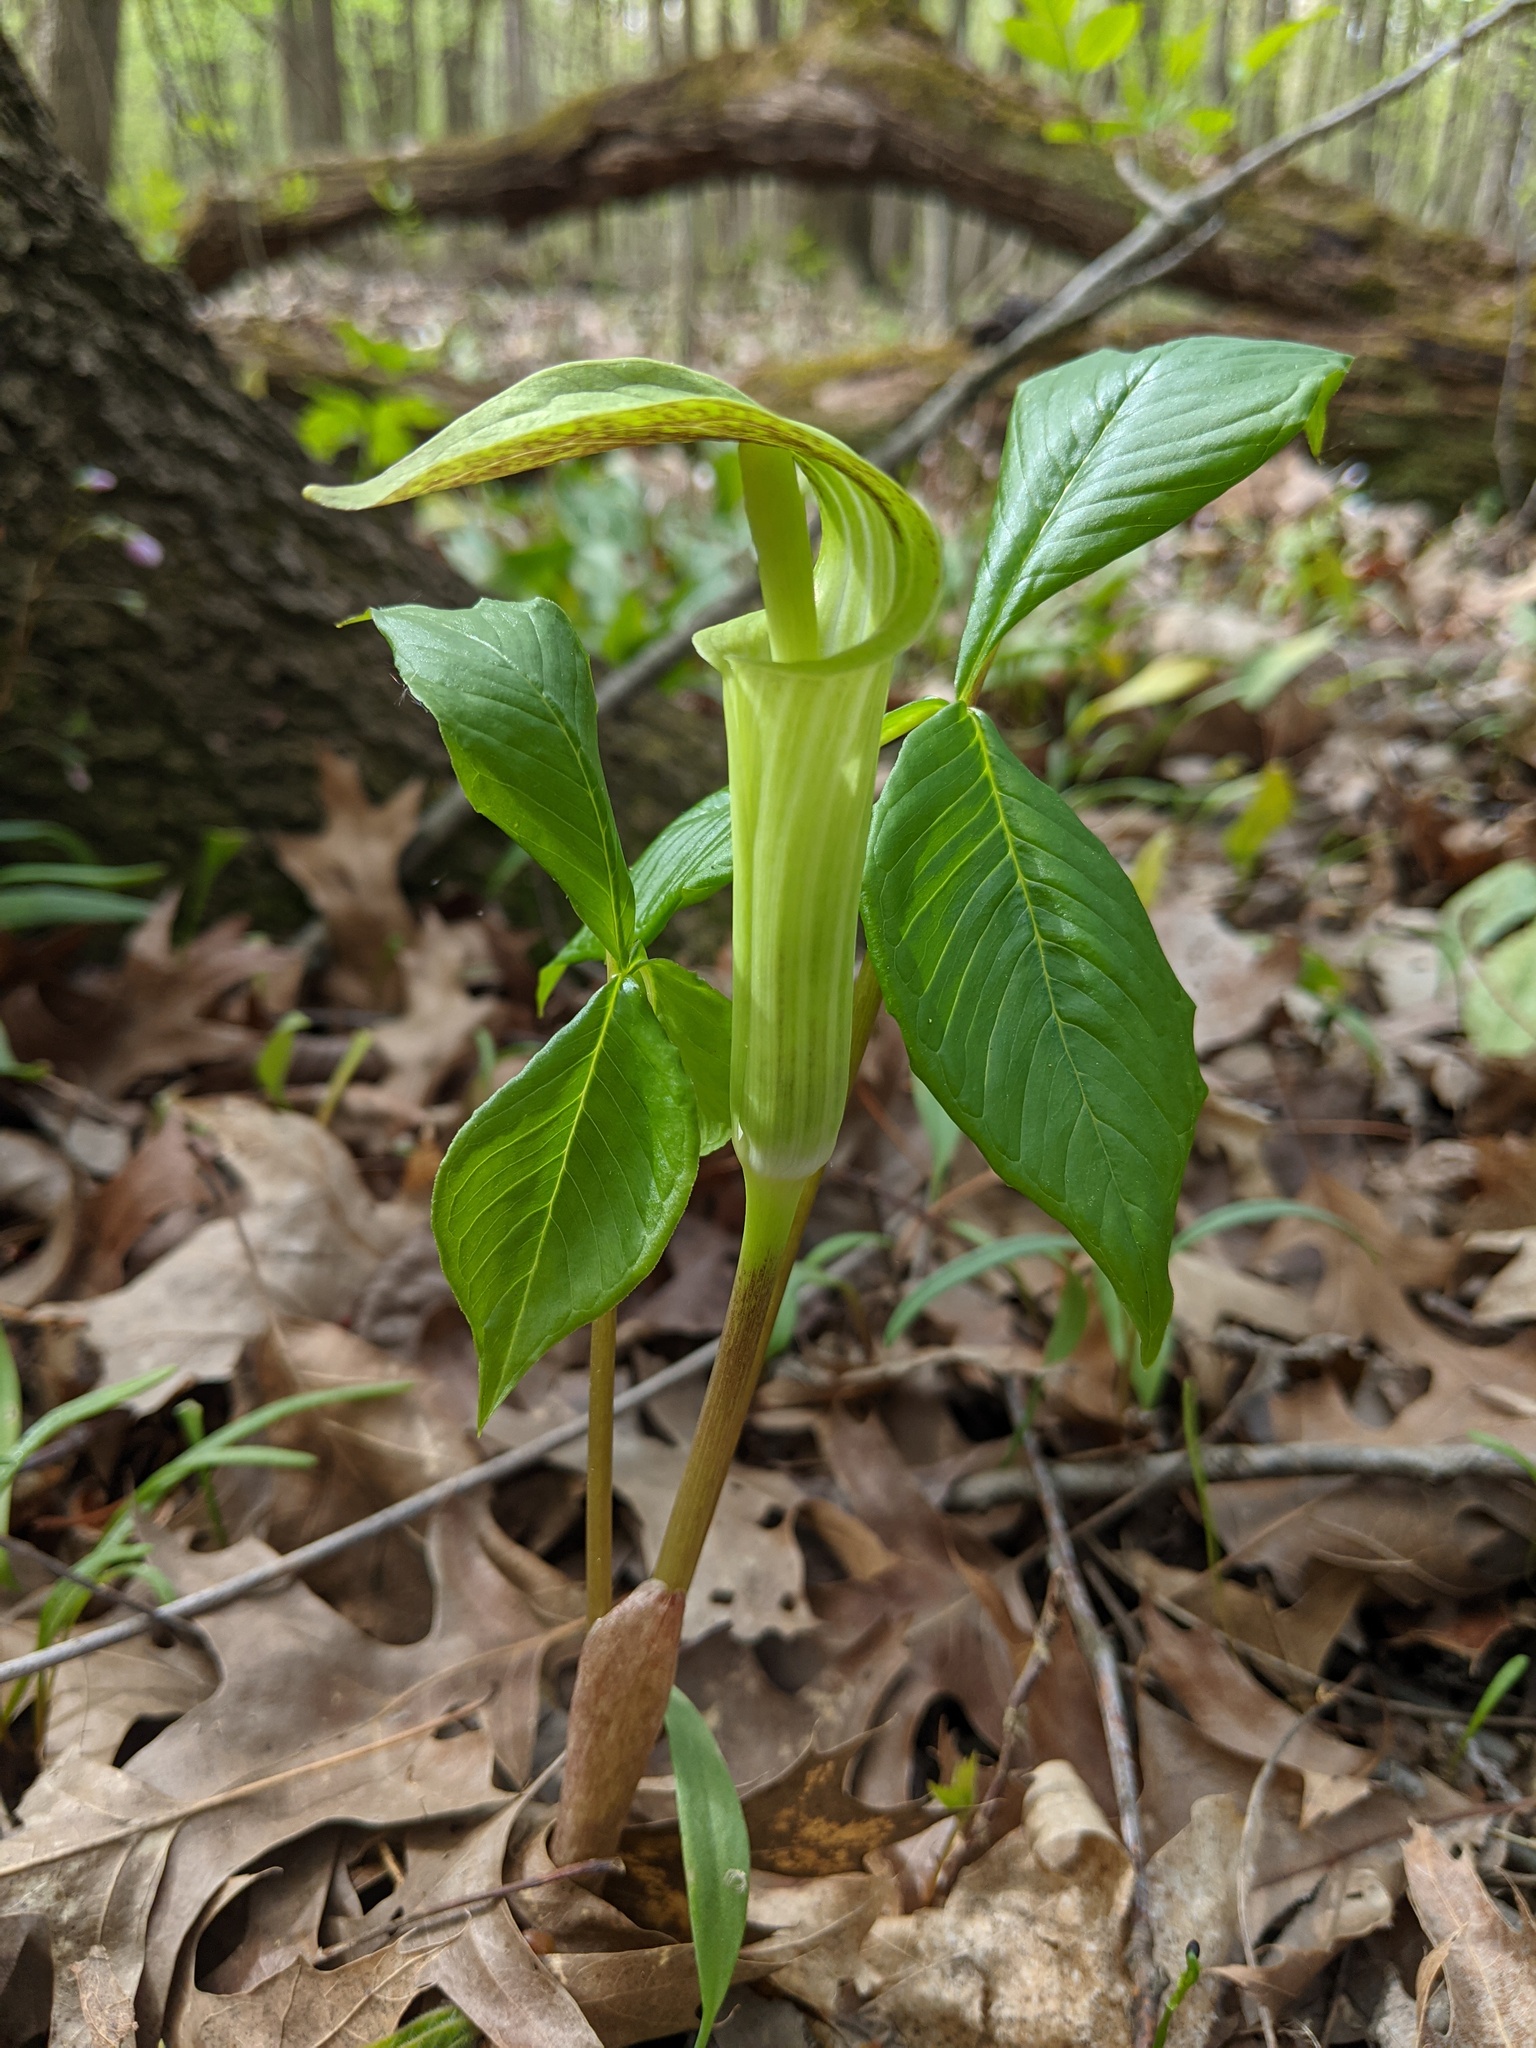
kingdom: Plantae
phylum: Tracheophyta
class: Liliopsida
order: Alismatales
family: Araceae
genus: Arisaema
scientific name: Arisaema triphyllum
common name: Jack-in-the-pulpit
